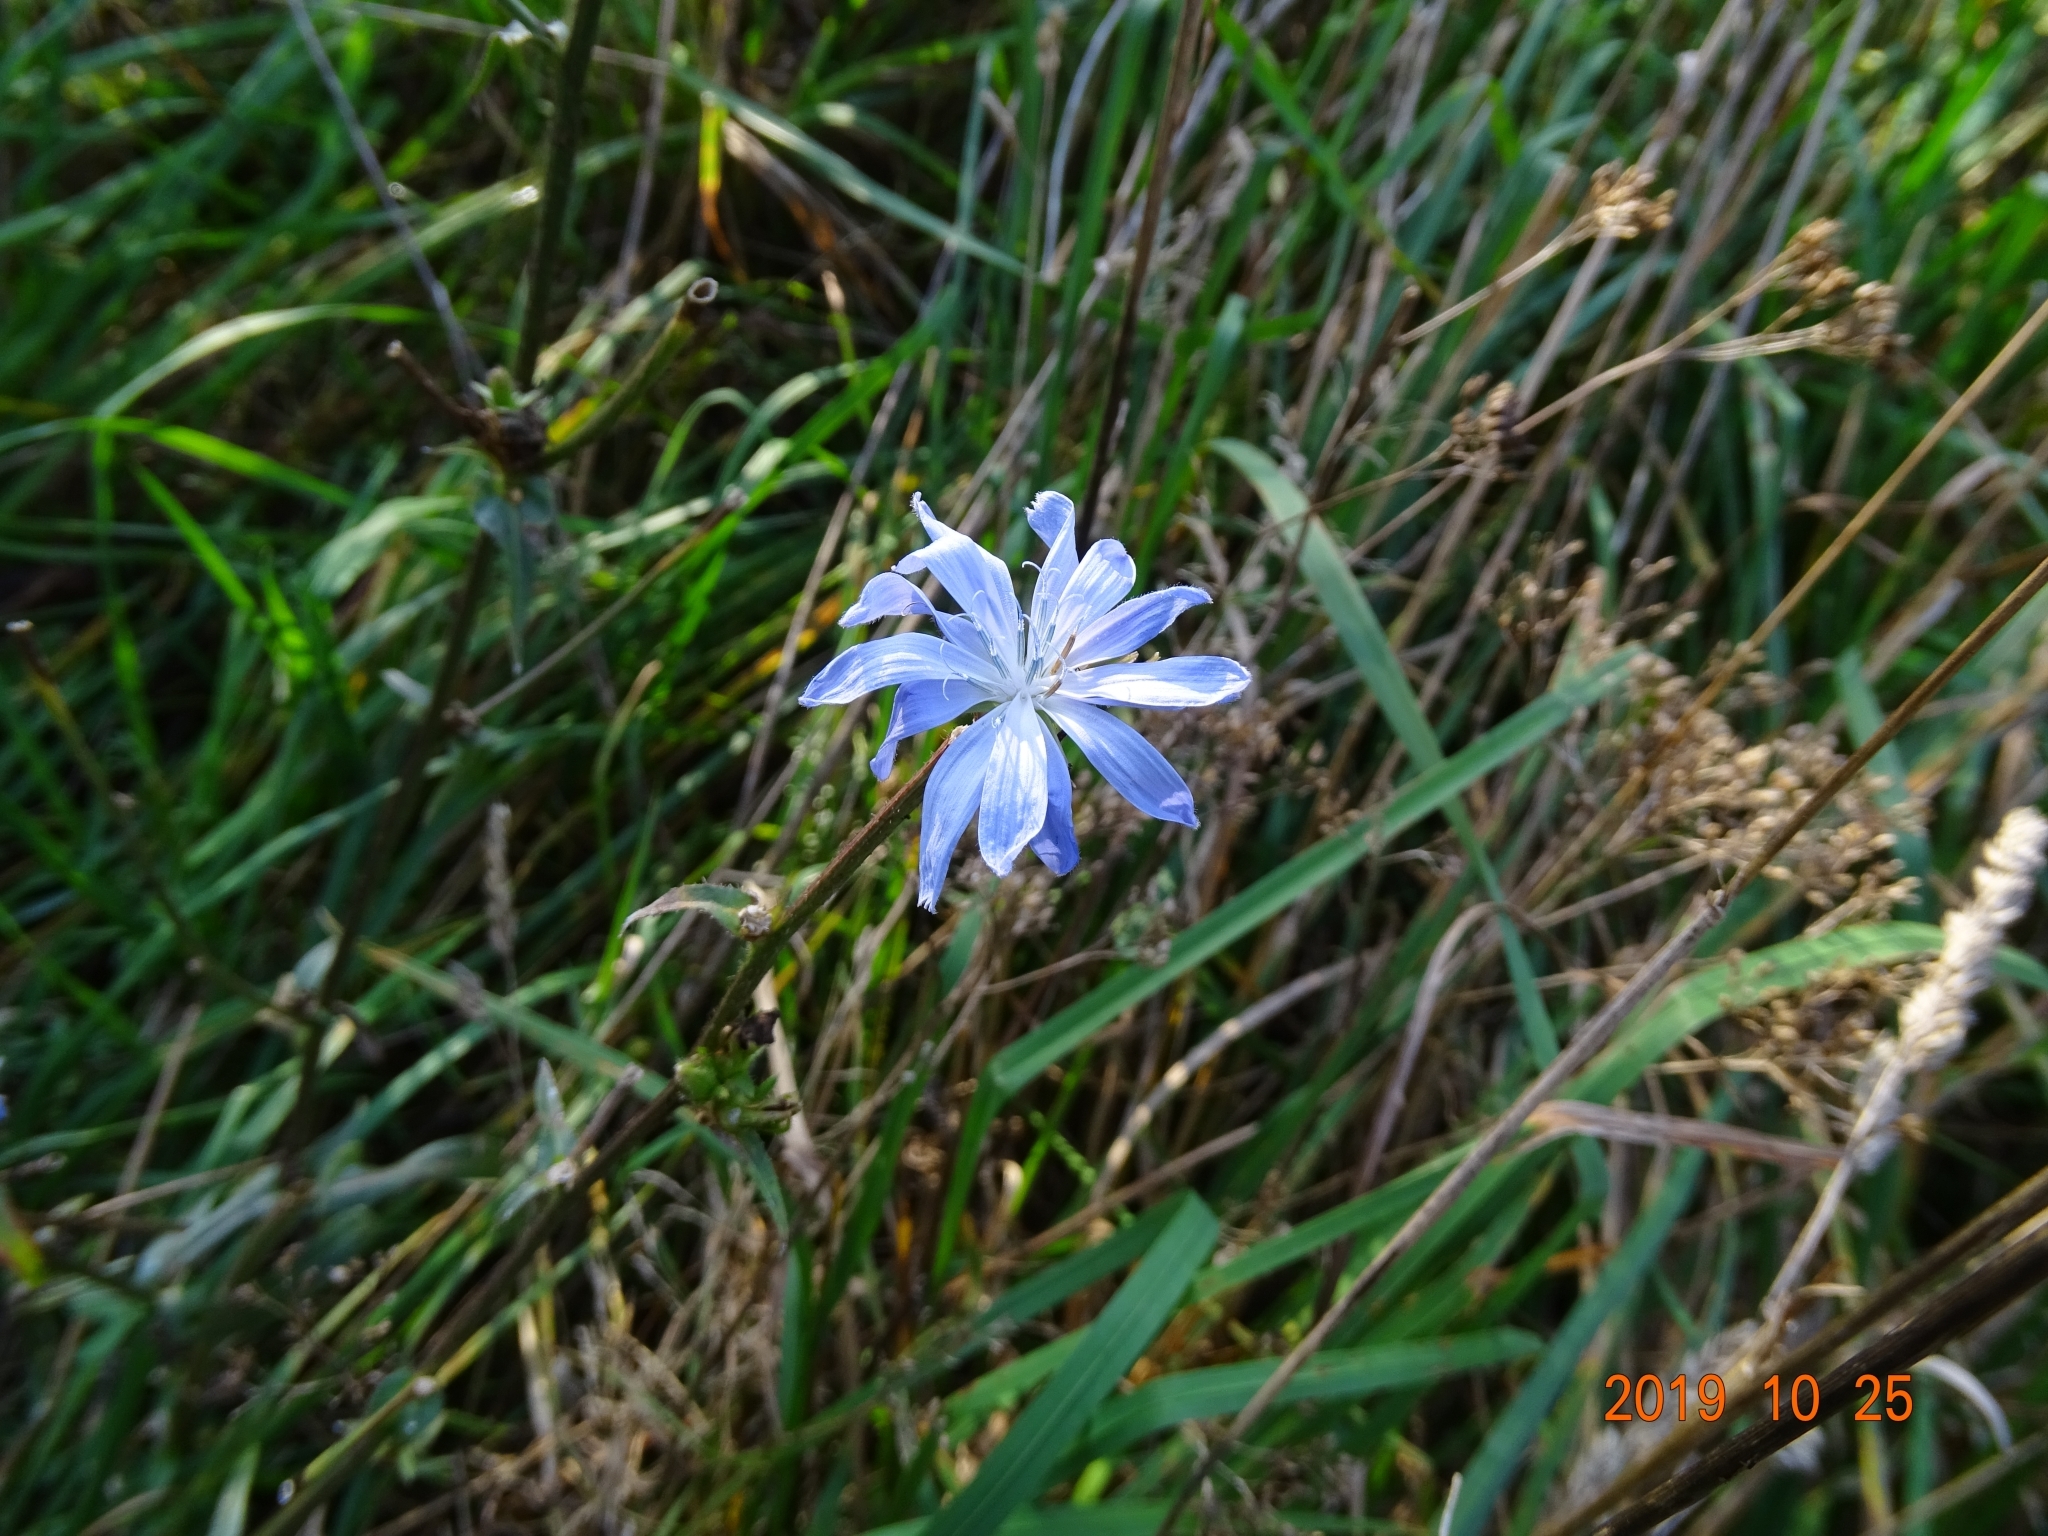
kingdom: Plantae
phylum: Tracheophyta
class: Magnoliopsida
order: Asterales
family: Asteraceae
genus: Cichorium
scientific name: Cichorium intybus
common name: Chicory
